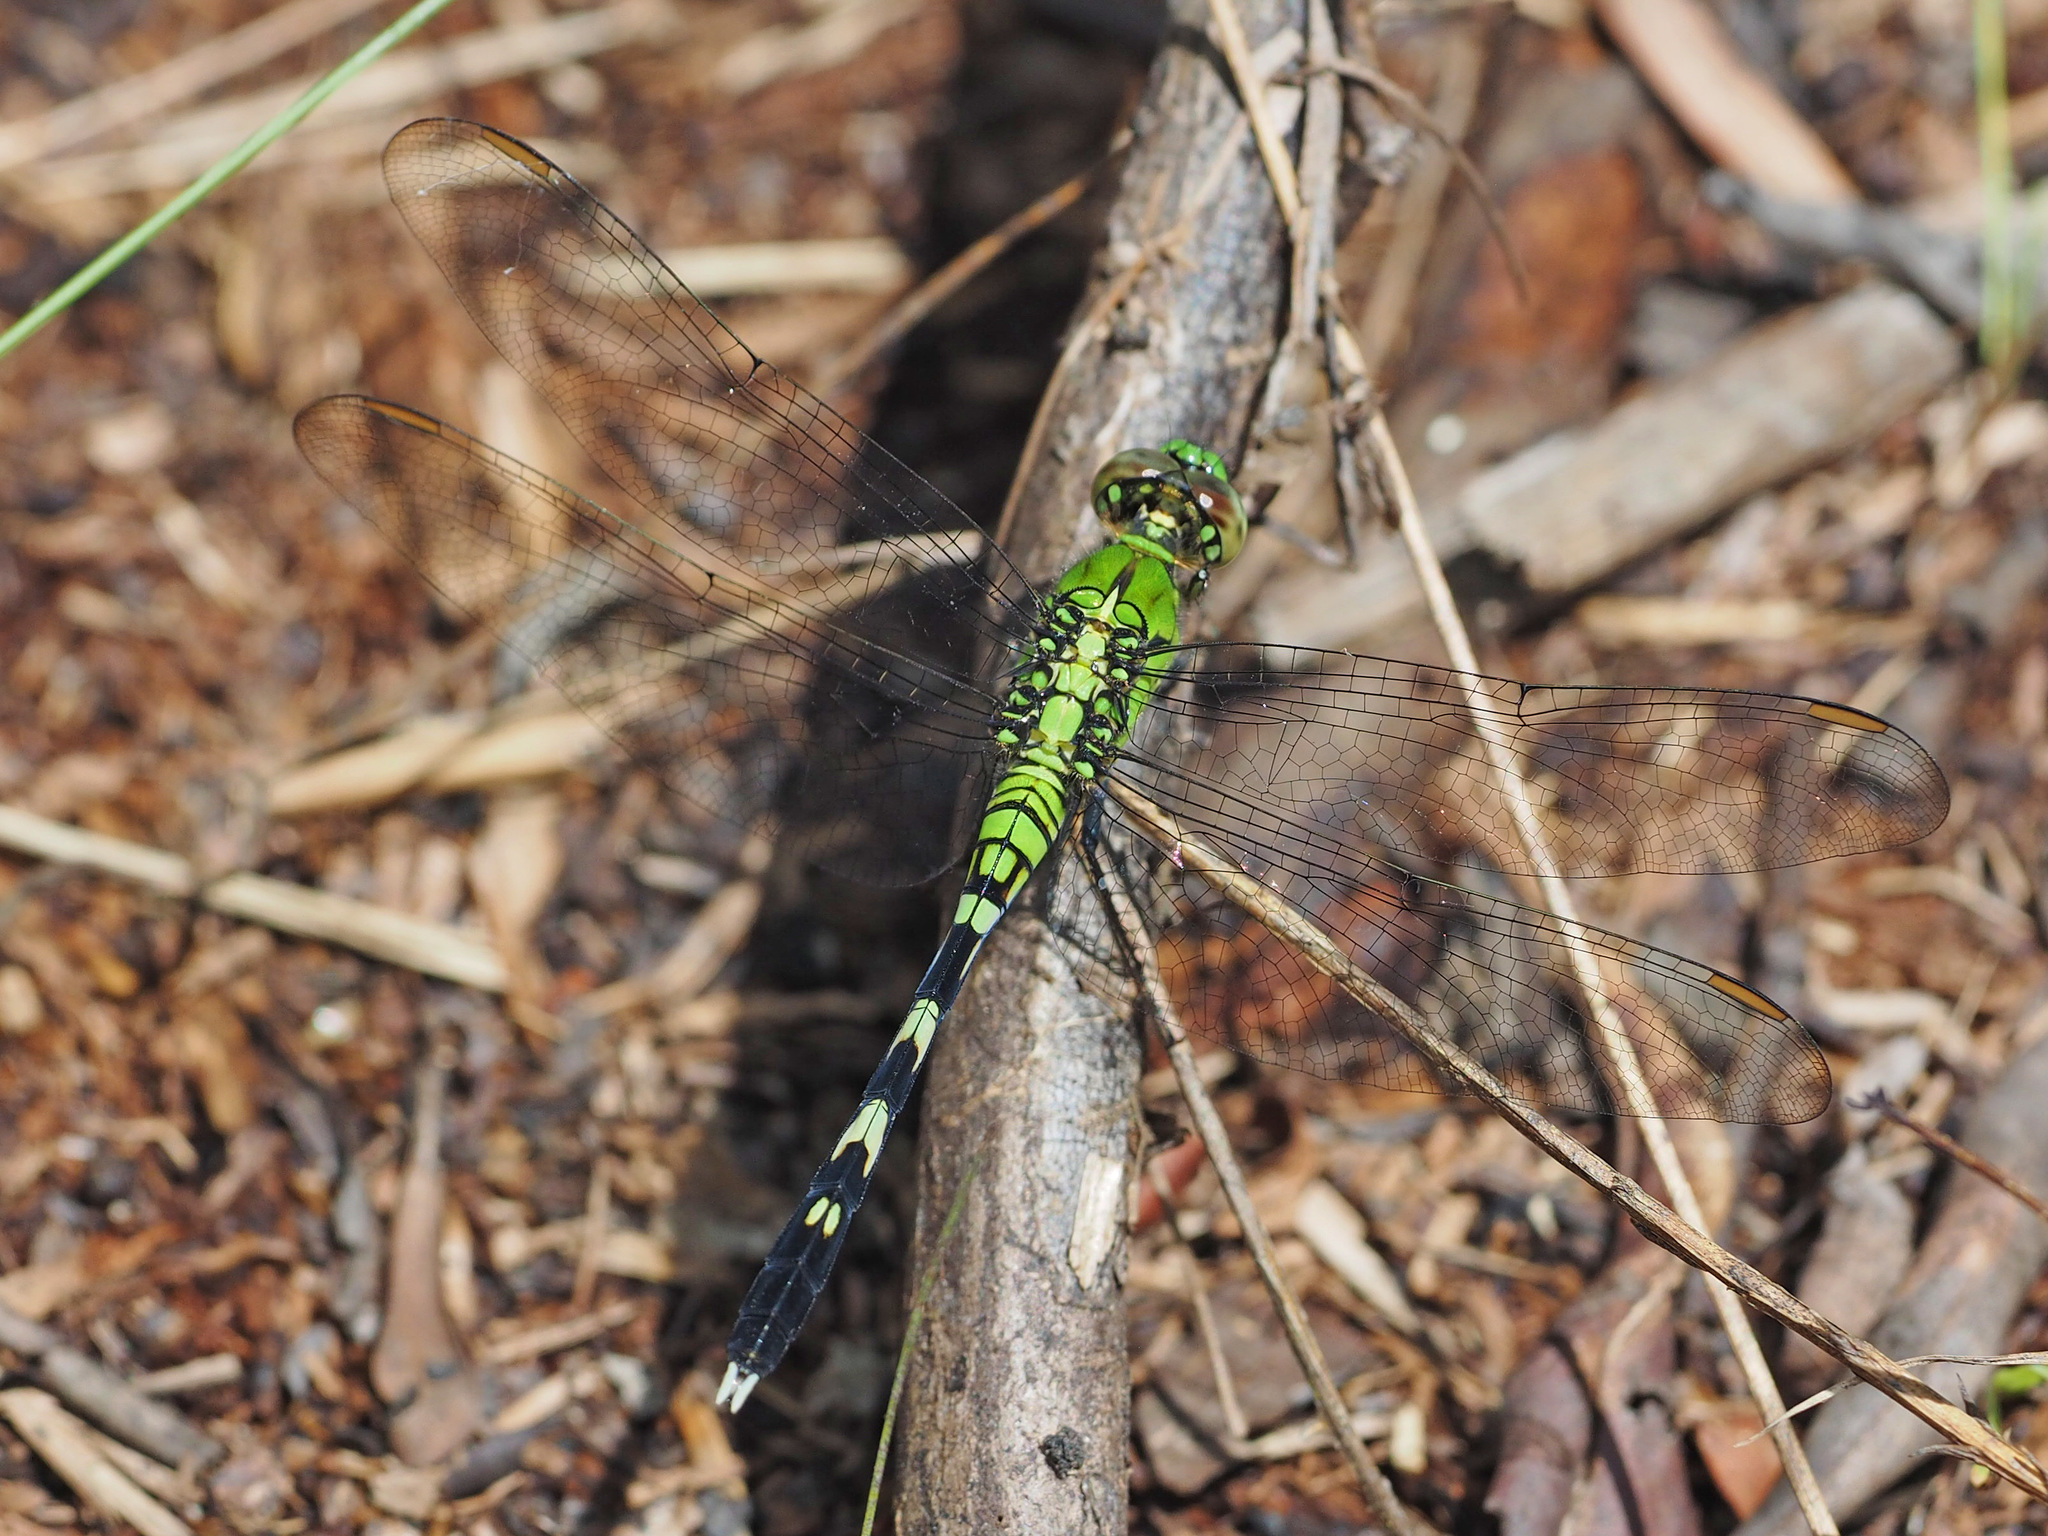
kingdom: Animalia
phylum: Arthropoda
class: Insecta
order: Odonata
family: Libellulidae
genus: Erythemis
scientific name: Erythemis simplicicollis
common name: Eastern pondhawk
